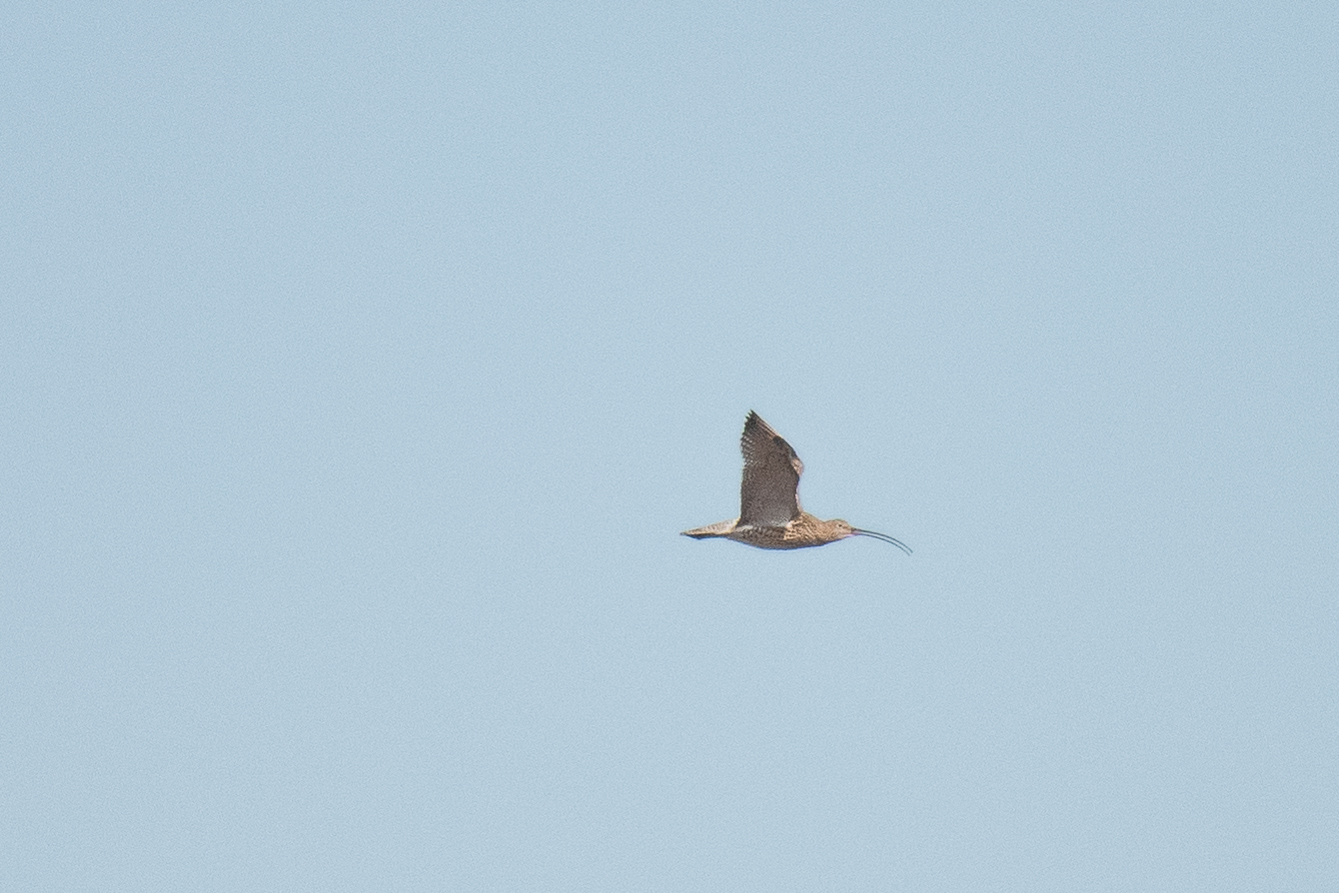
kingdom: Animalia
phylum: Chordata
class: Aves
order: Charadriiformes
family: Scolopacidae
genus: Numenius
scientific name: Numenius arquata
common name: Eurasian curlew
